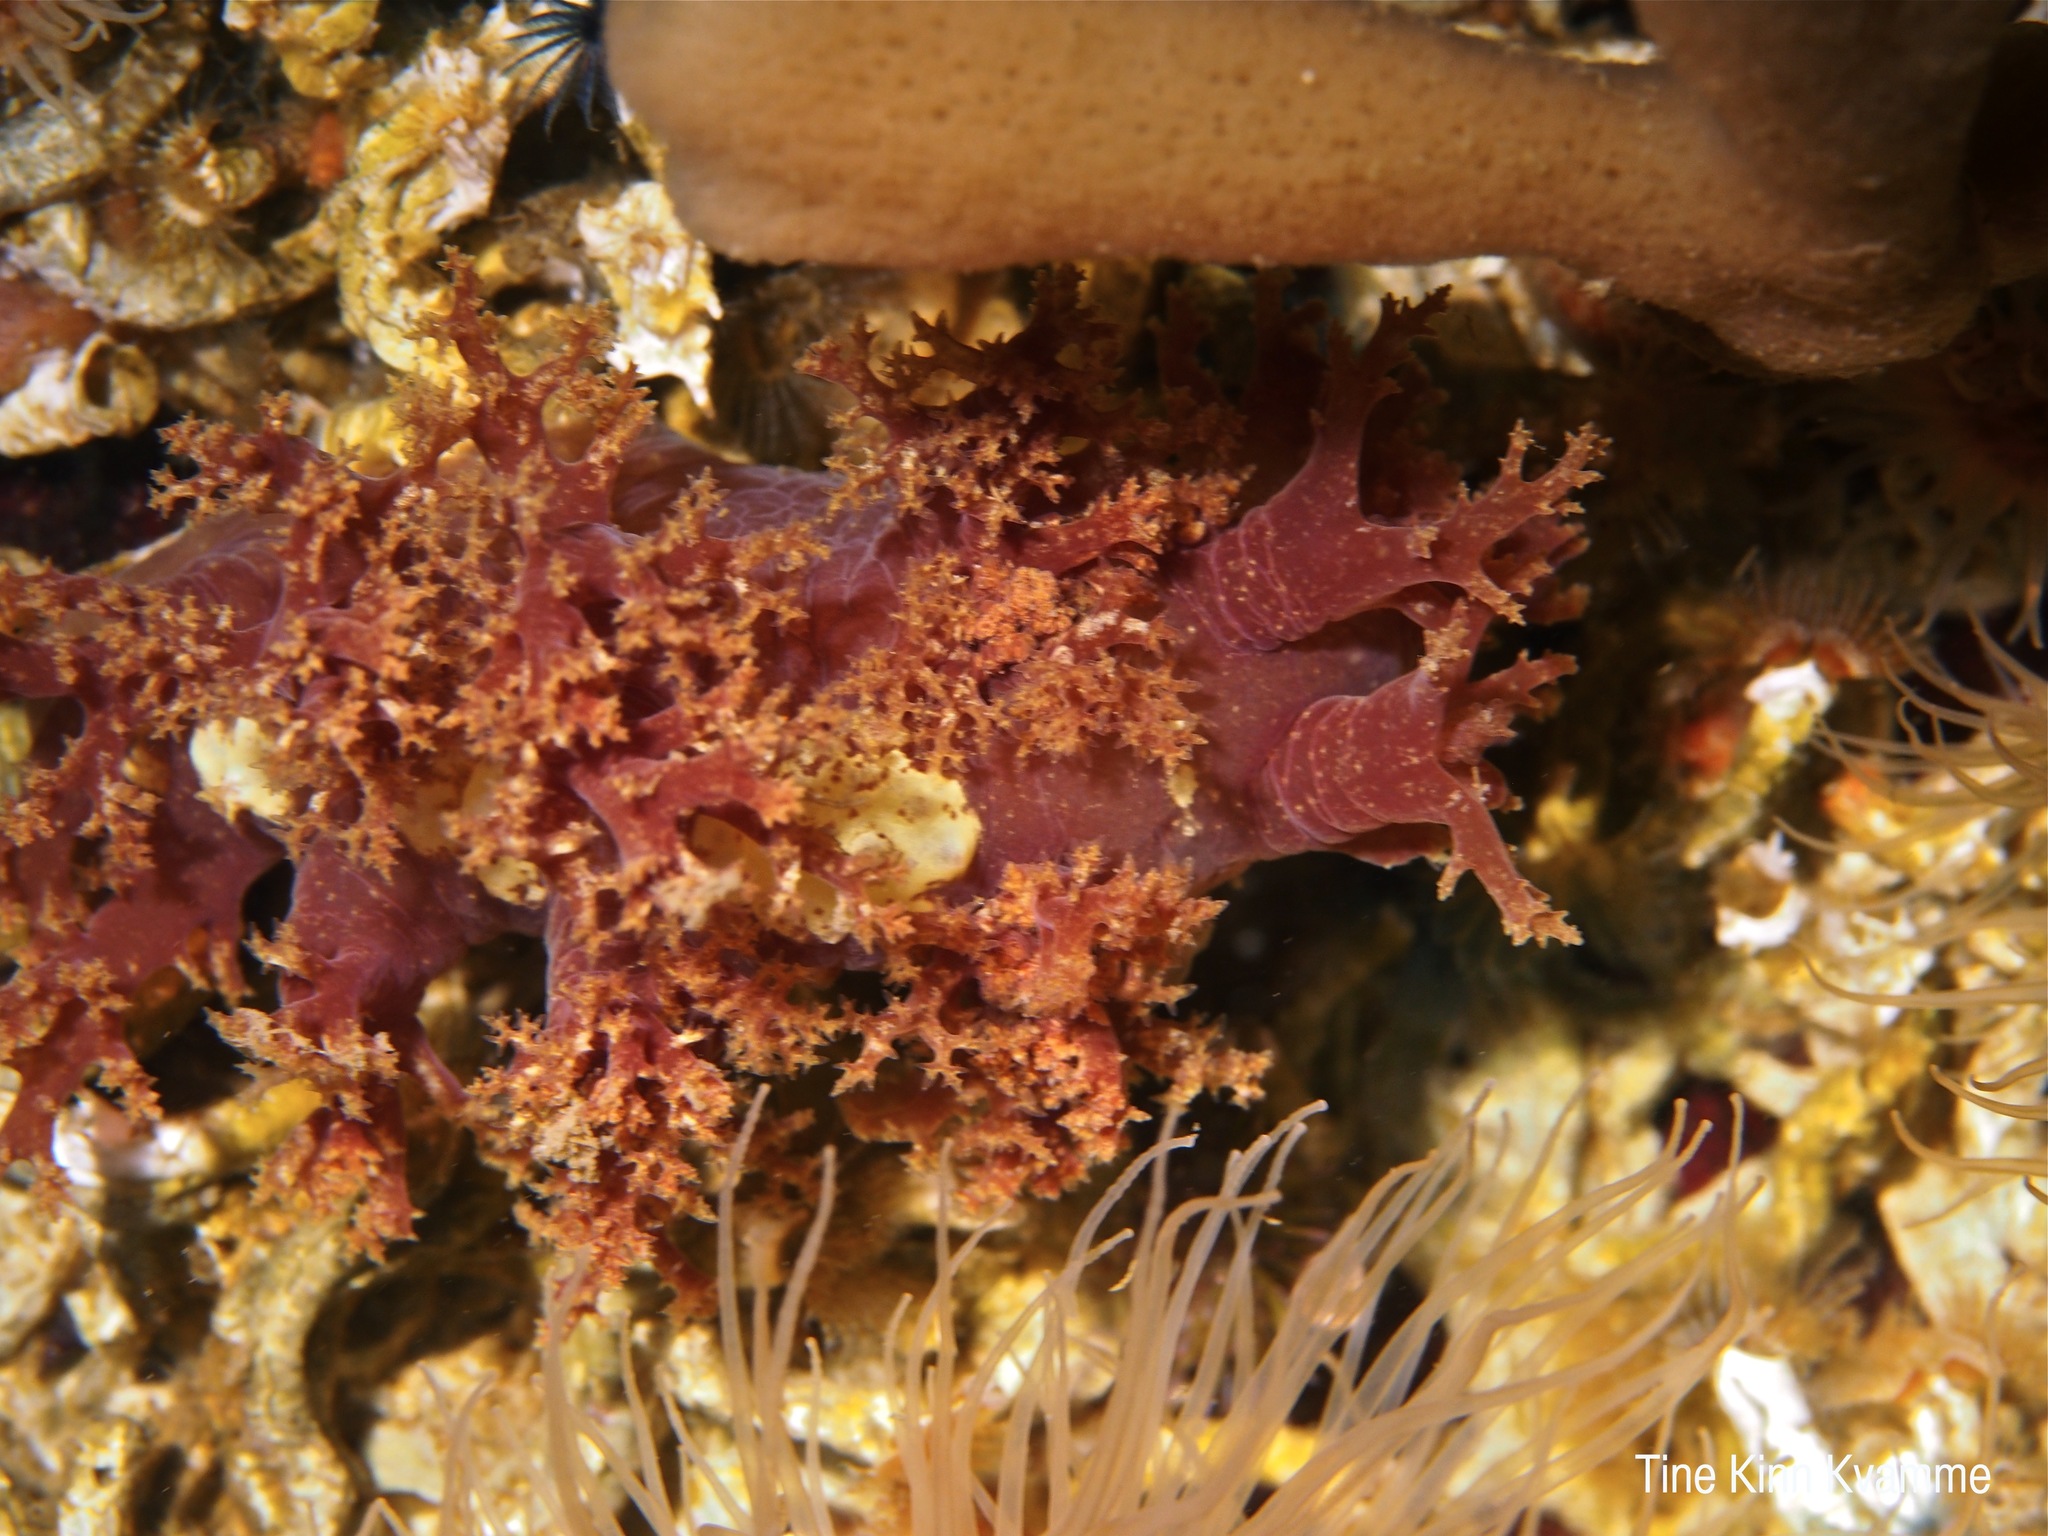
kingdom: Animalia
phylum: Mollusca
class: Gastropoda
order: Nudibranchia
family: Dendronotidae
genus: Dendronotus
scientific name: Dendronotus lacteus
